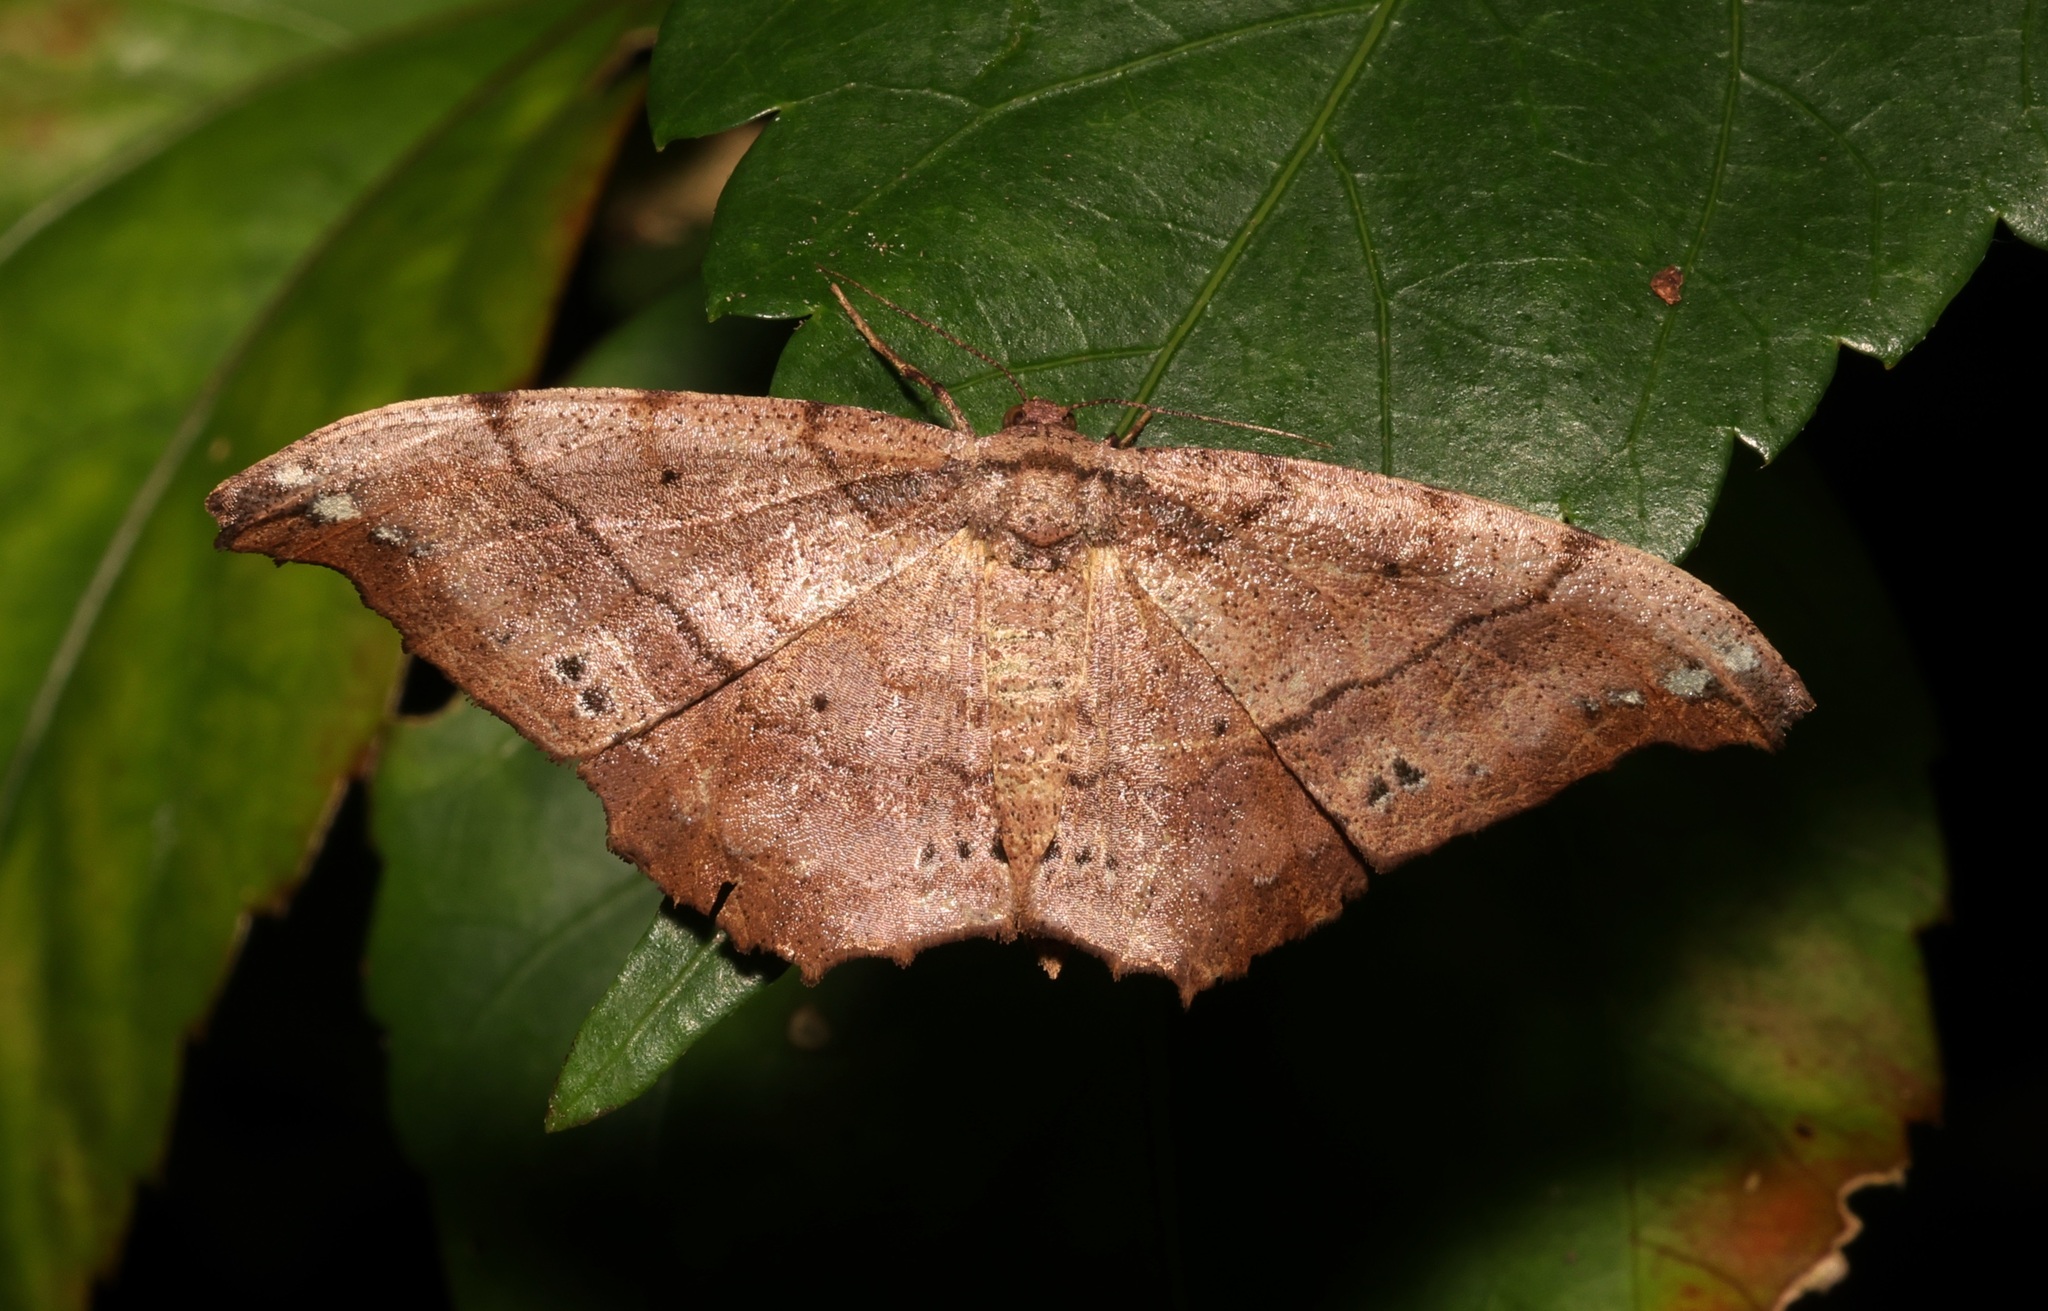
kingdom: Animalia
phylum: Arthropoda
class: Insecta
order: Lepidoptera
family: Geometridae
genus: Hyposidra
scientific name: Hyposidra infixaria
